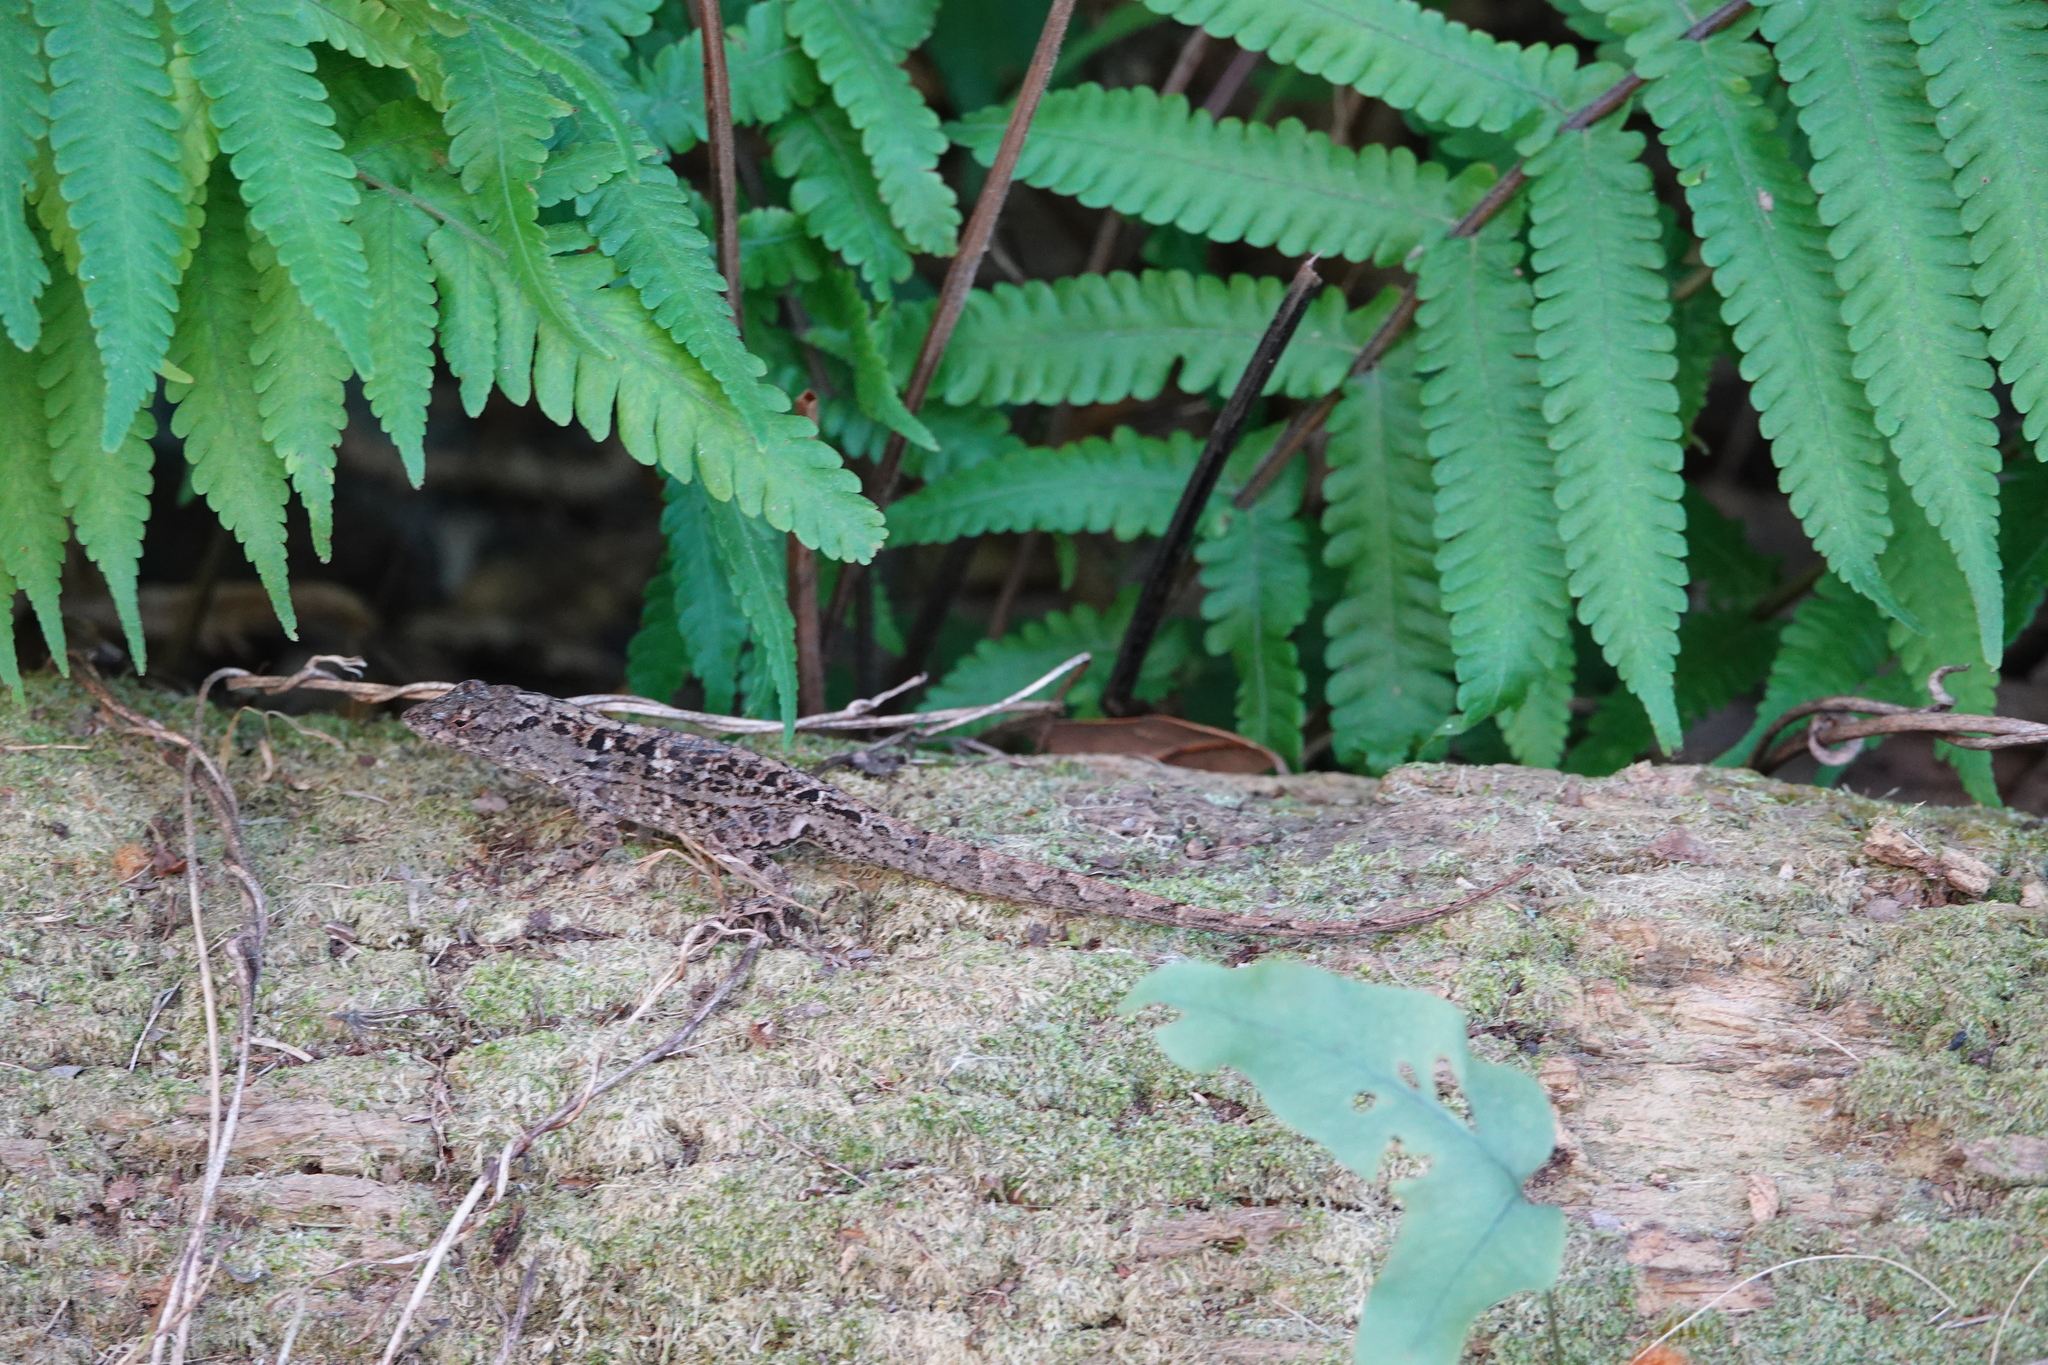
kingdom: Animalia
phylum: Chordata
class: Squamata
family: Dactyloidae
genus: Anolis
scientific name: Anolis sagrei
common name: Brown anole
